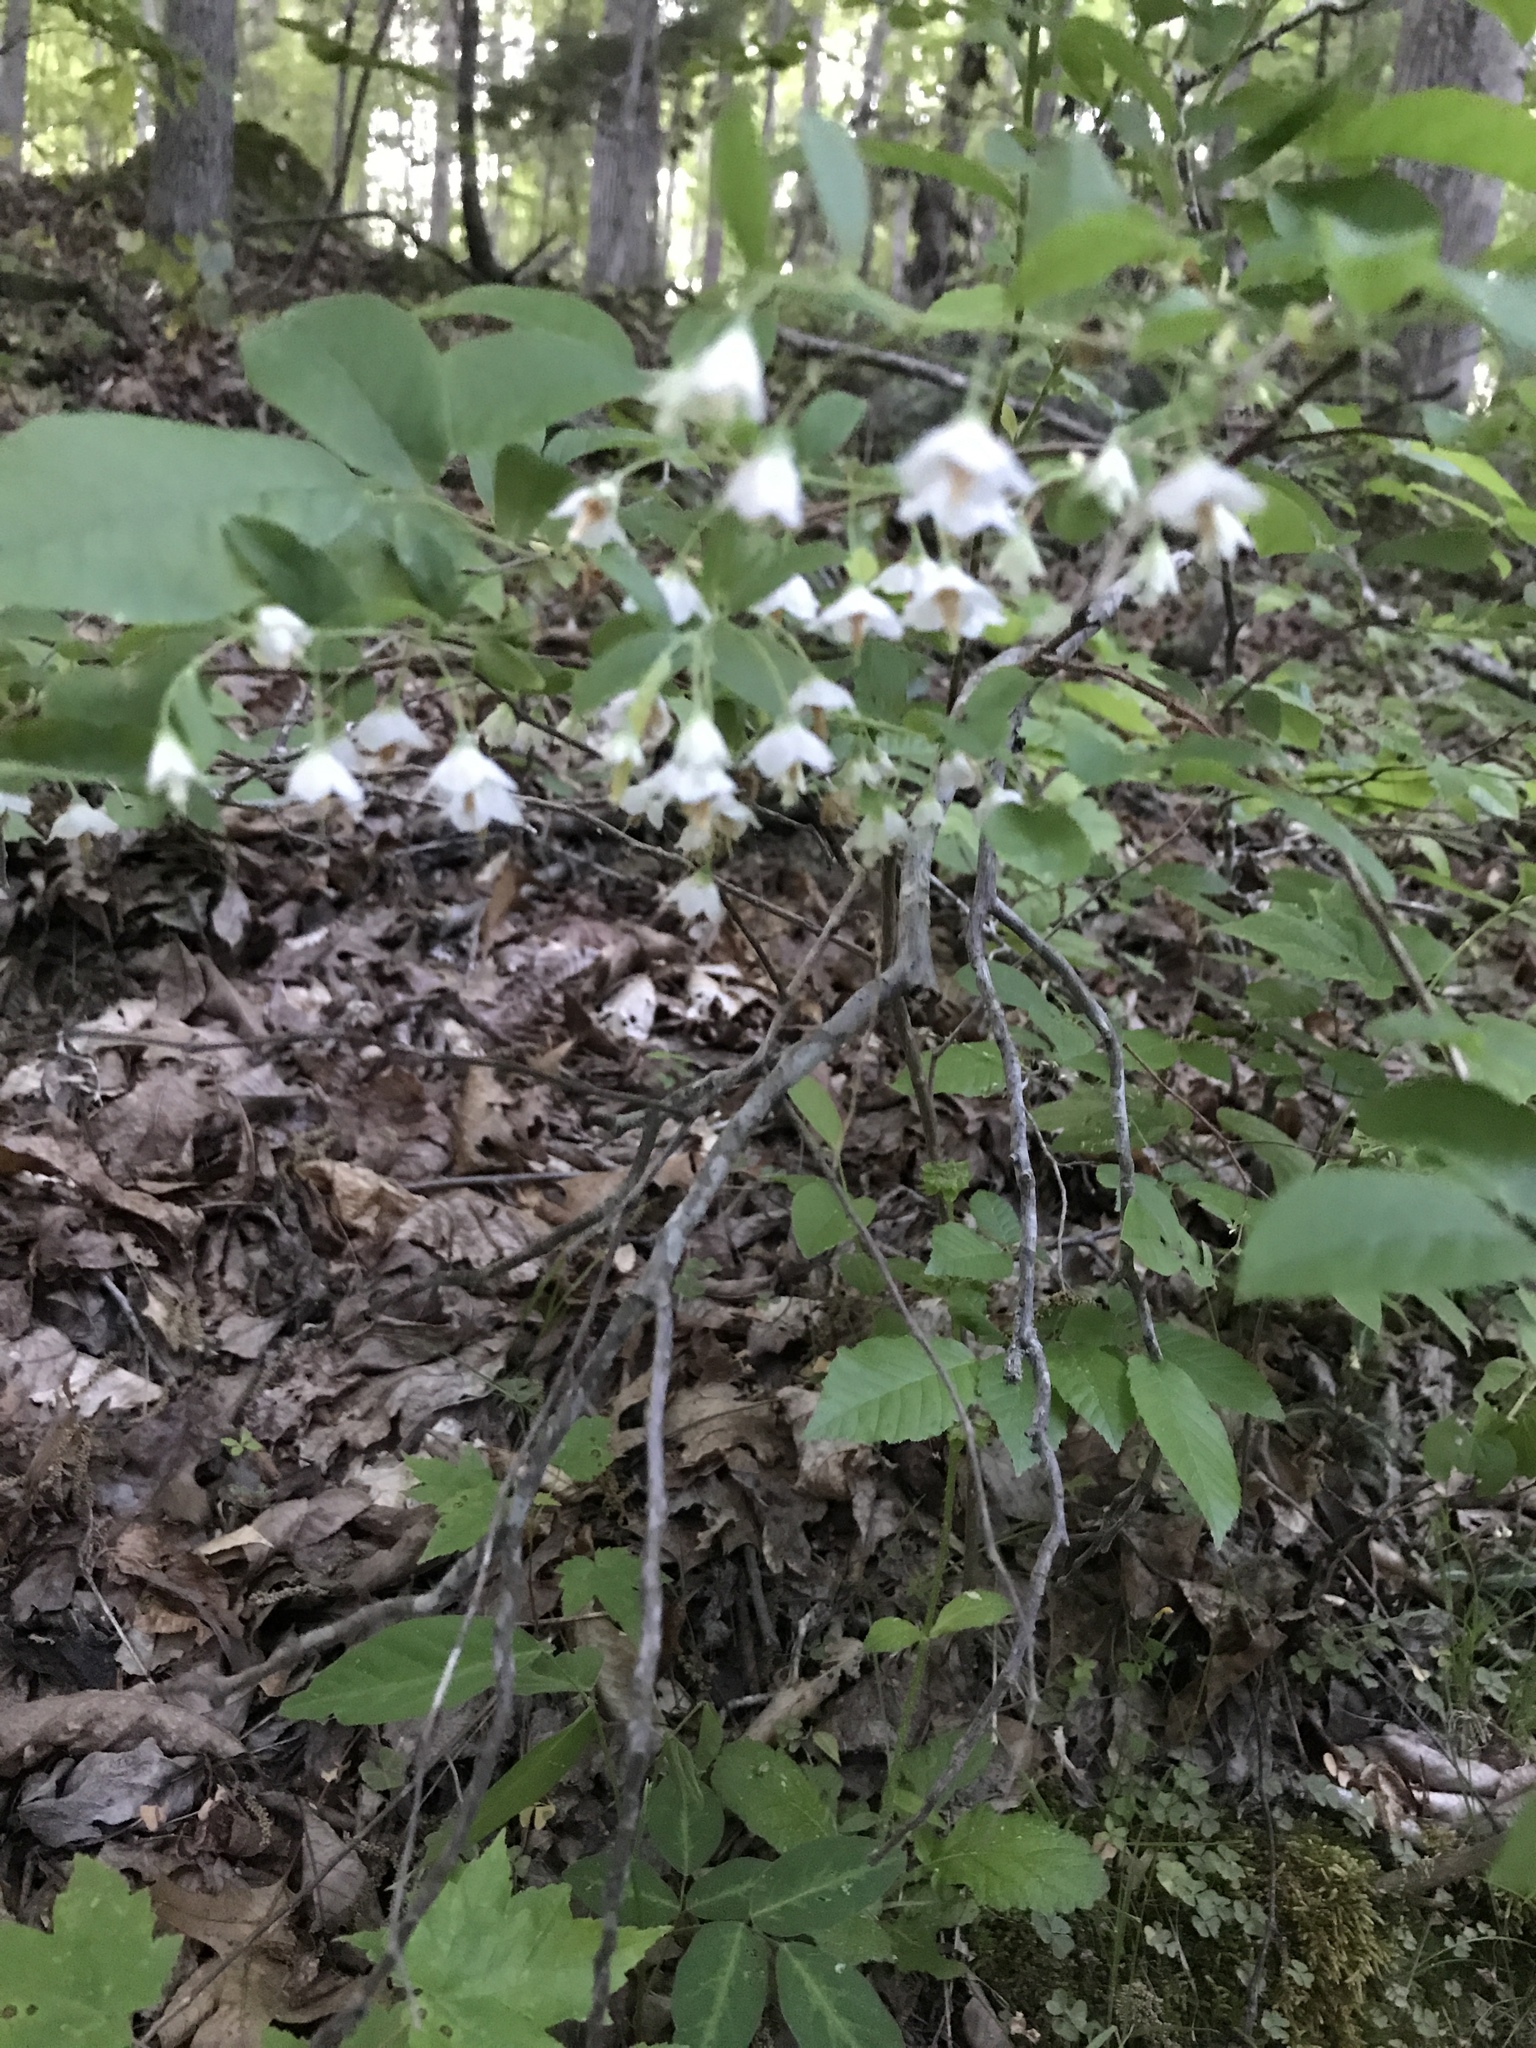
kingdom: Plantae
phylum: Tracheophyta
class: Magnoliopsida
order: Ericales
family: Ericaceae
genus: Vaccinium
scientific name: Vaccinium stamineum
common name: Deerberry
